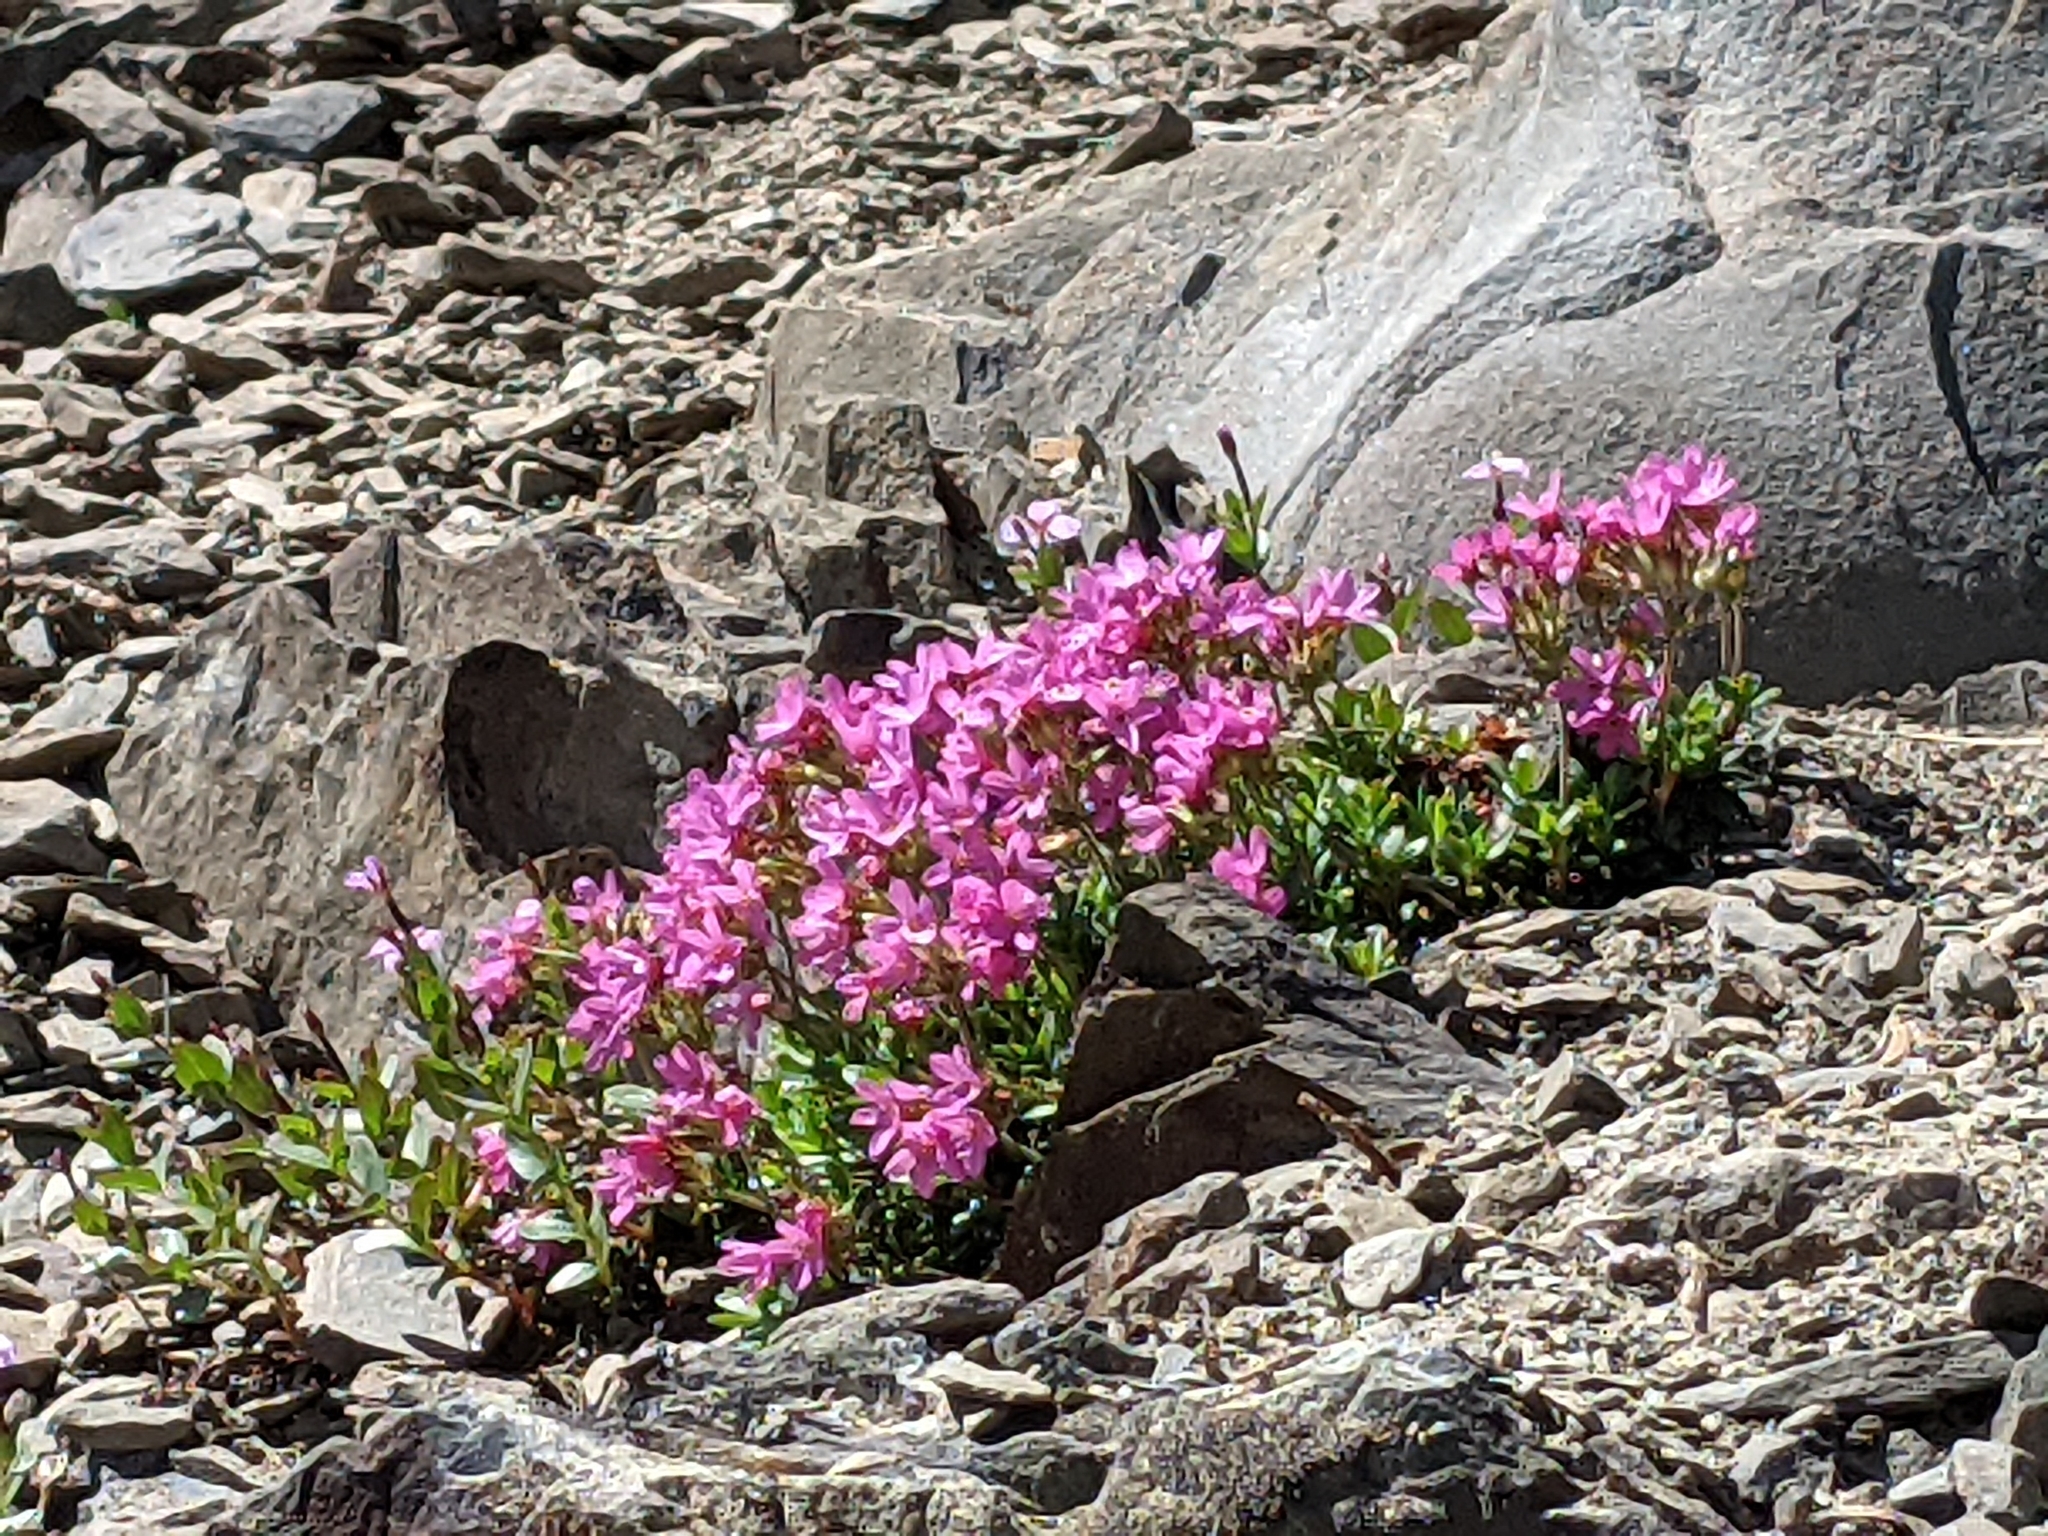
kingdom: Plantae
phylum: Tracheophyta
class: Magnoliopsida
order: Ericales
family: Primulaceae
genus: Androsace
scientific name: Androsace laevigata
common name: Cliff dwarf-primrose
